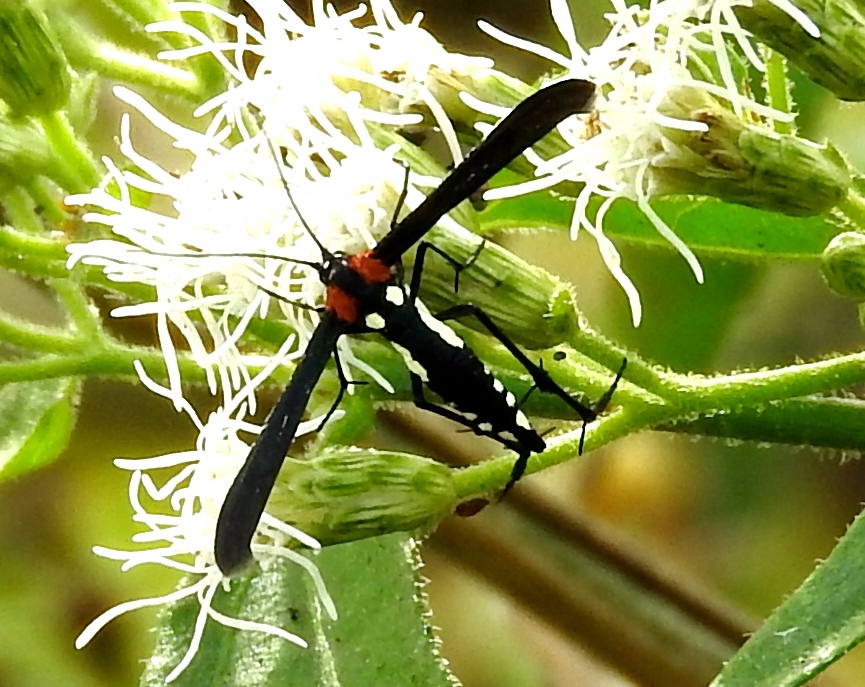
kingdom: Animalia
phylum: Arthropoda
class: Insecta
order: Lepidoptera
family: Pterophoridae
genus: Hellinsia
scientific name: Hellinsia chamelai
